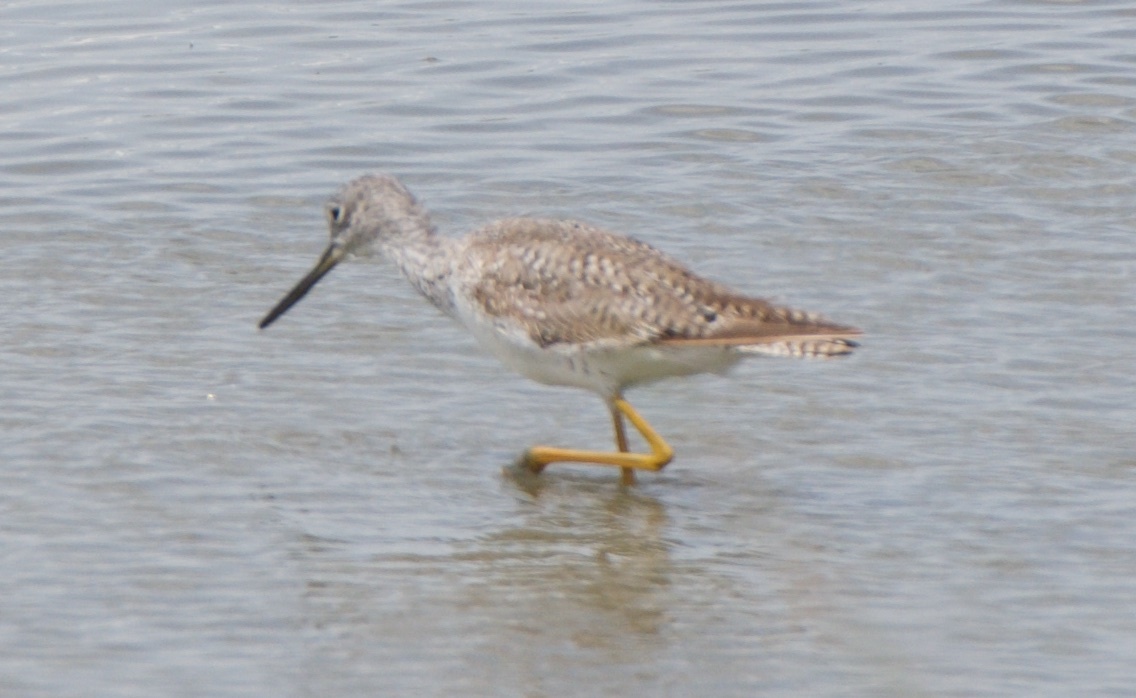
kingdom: Animalia
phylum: Chordata
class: Aves
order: Charadriiformes
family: Scolopacidae
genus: Tringa
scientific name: Tringa melanoleuca
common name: Greater yellowlegs
